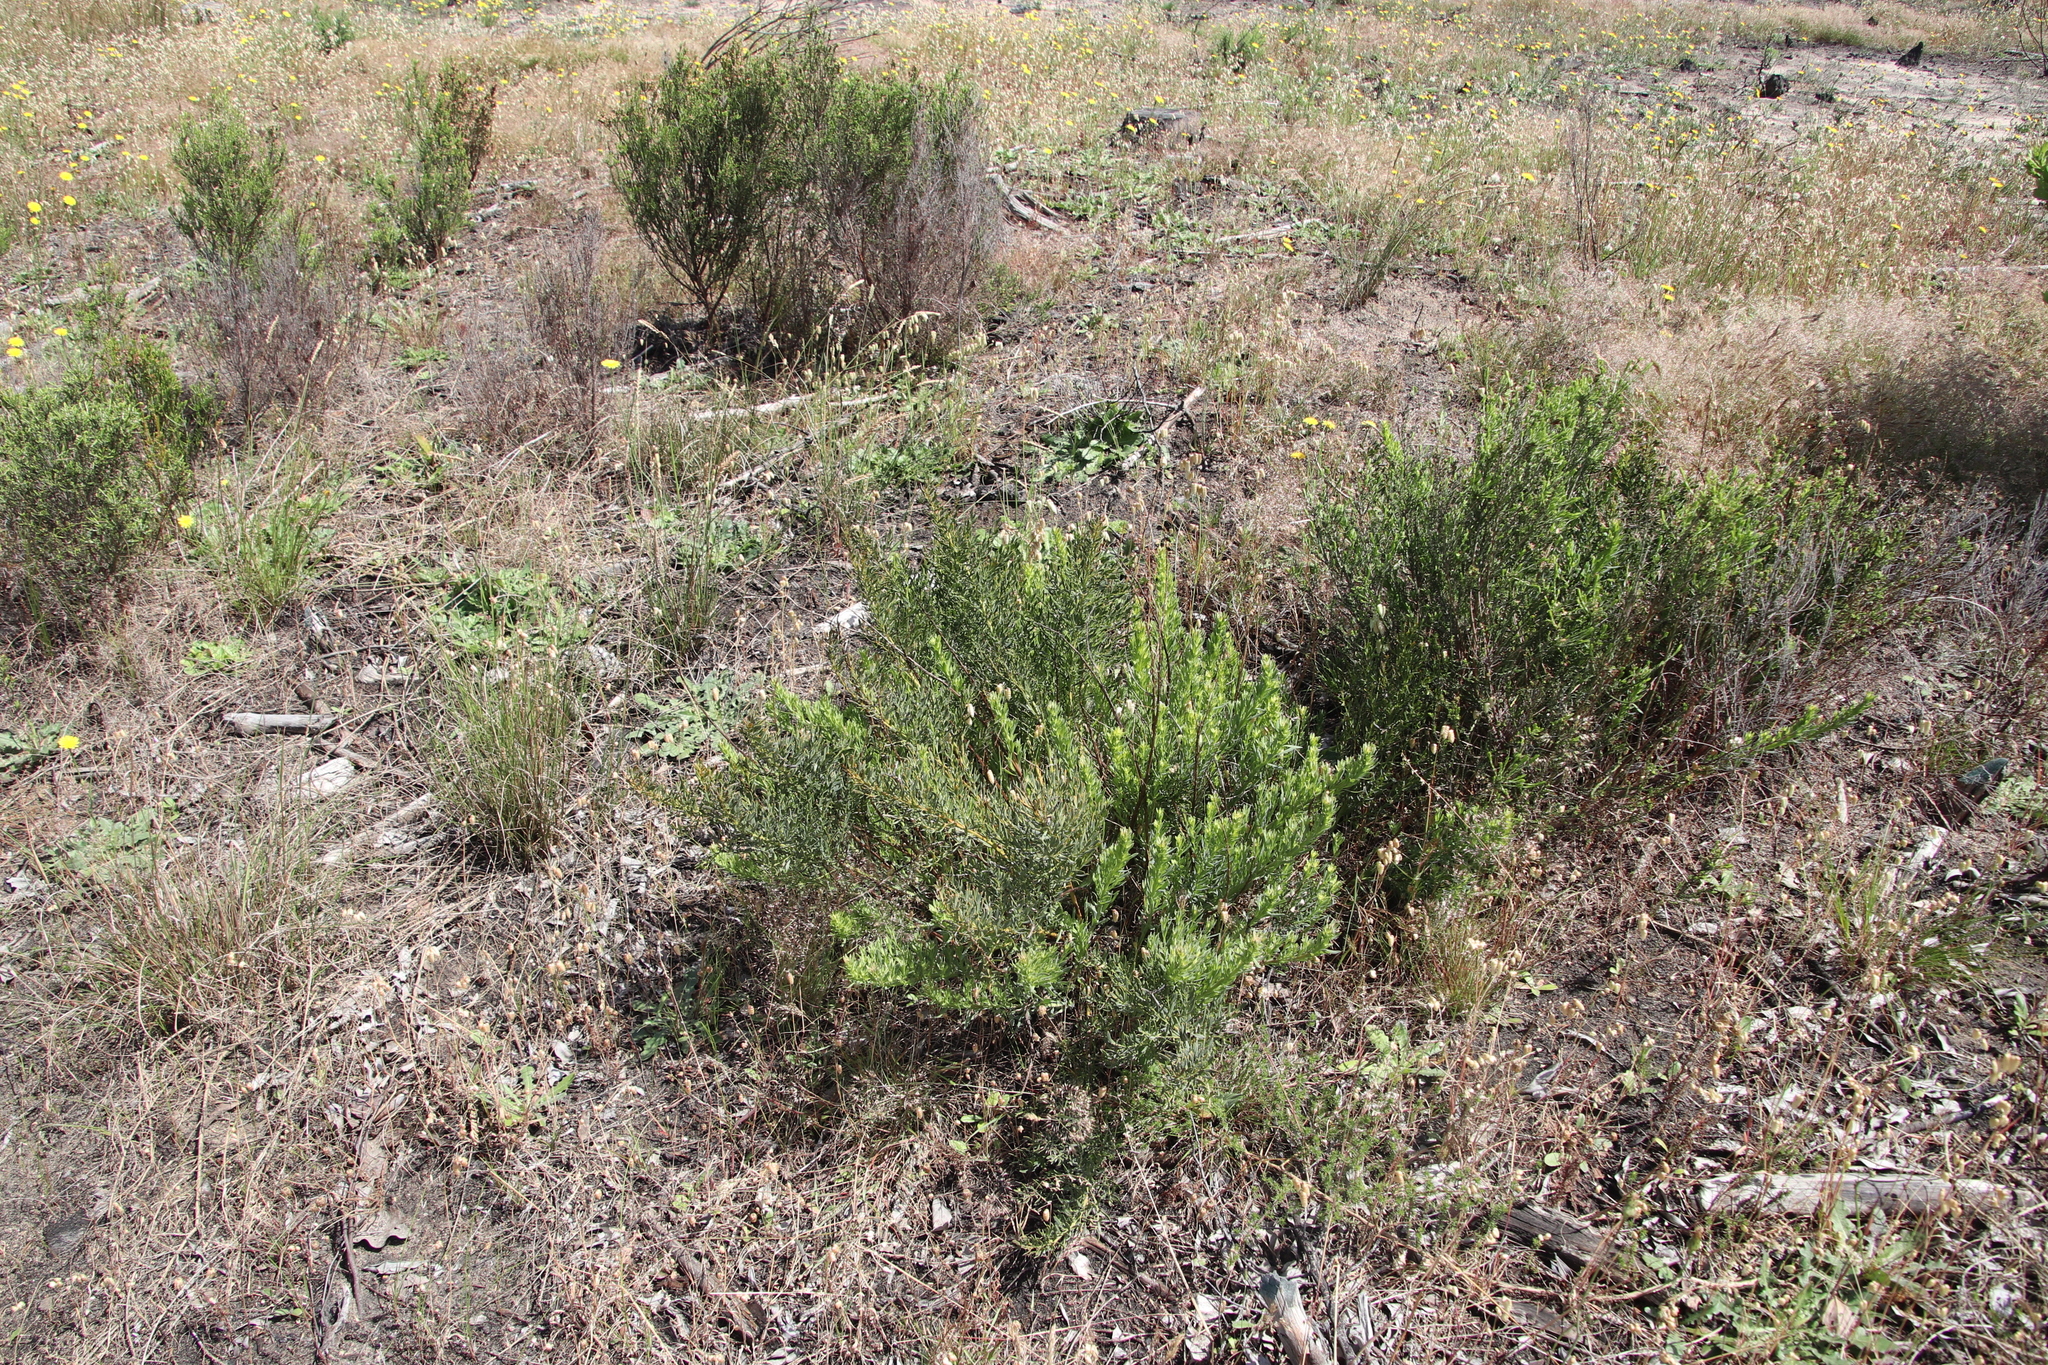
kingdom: Plantae
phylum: Tracheophyta
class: Magnoliopsida
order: Fabales
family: Fabaceae
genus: Rafnia
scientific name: Rafnia capensis
